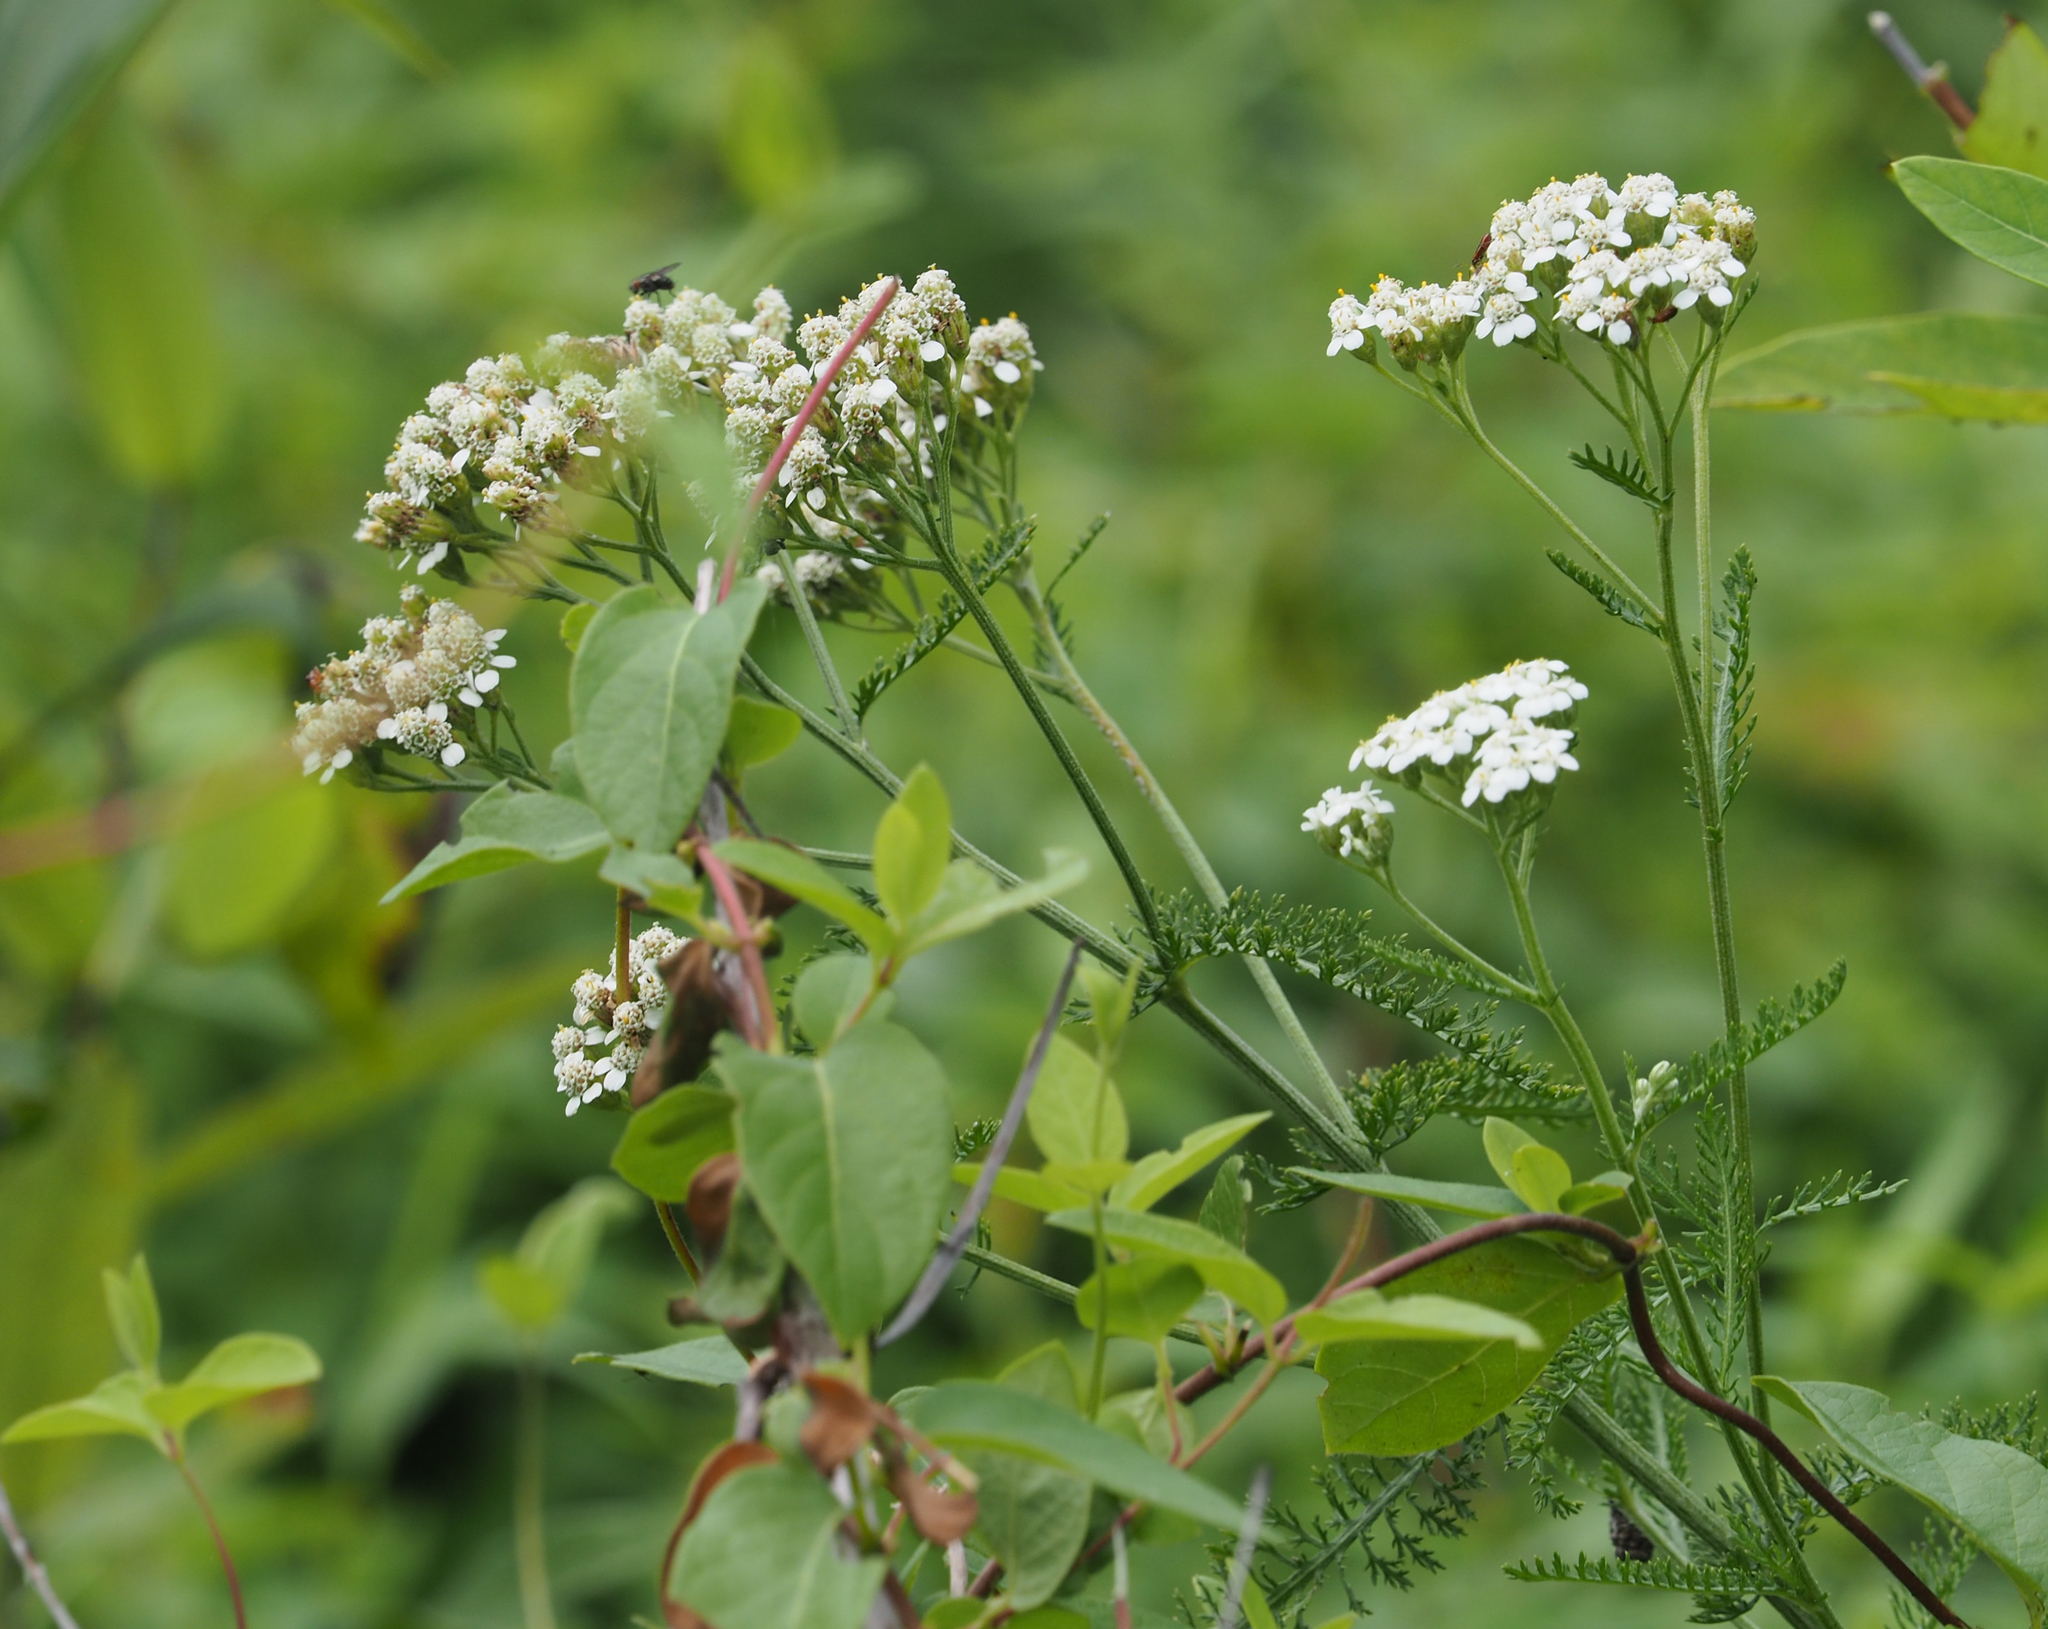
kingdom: Plantae
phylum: Tracheophyta
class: Magnoliopsida
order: Asterales
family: Asteraceae
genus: Achillea
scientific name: Achillea millefolium
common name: Yarrow
